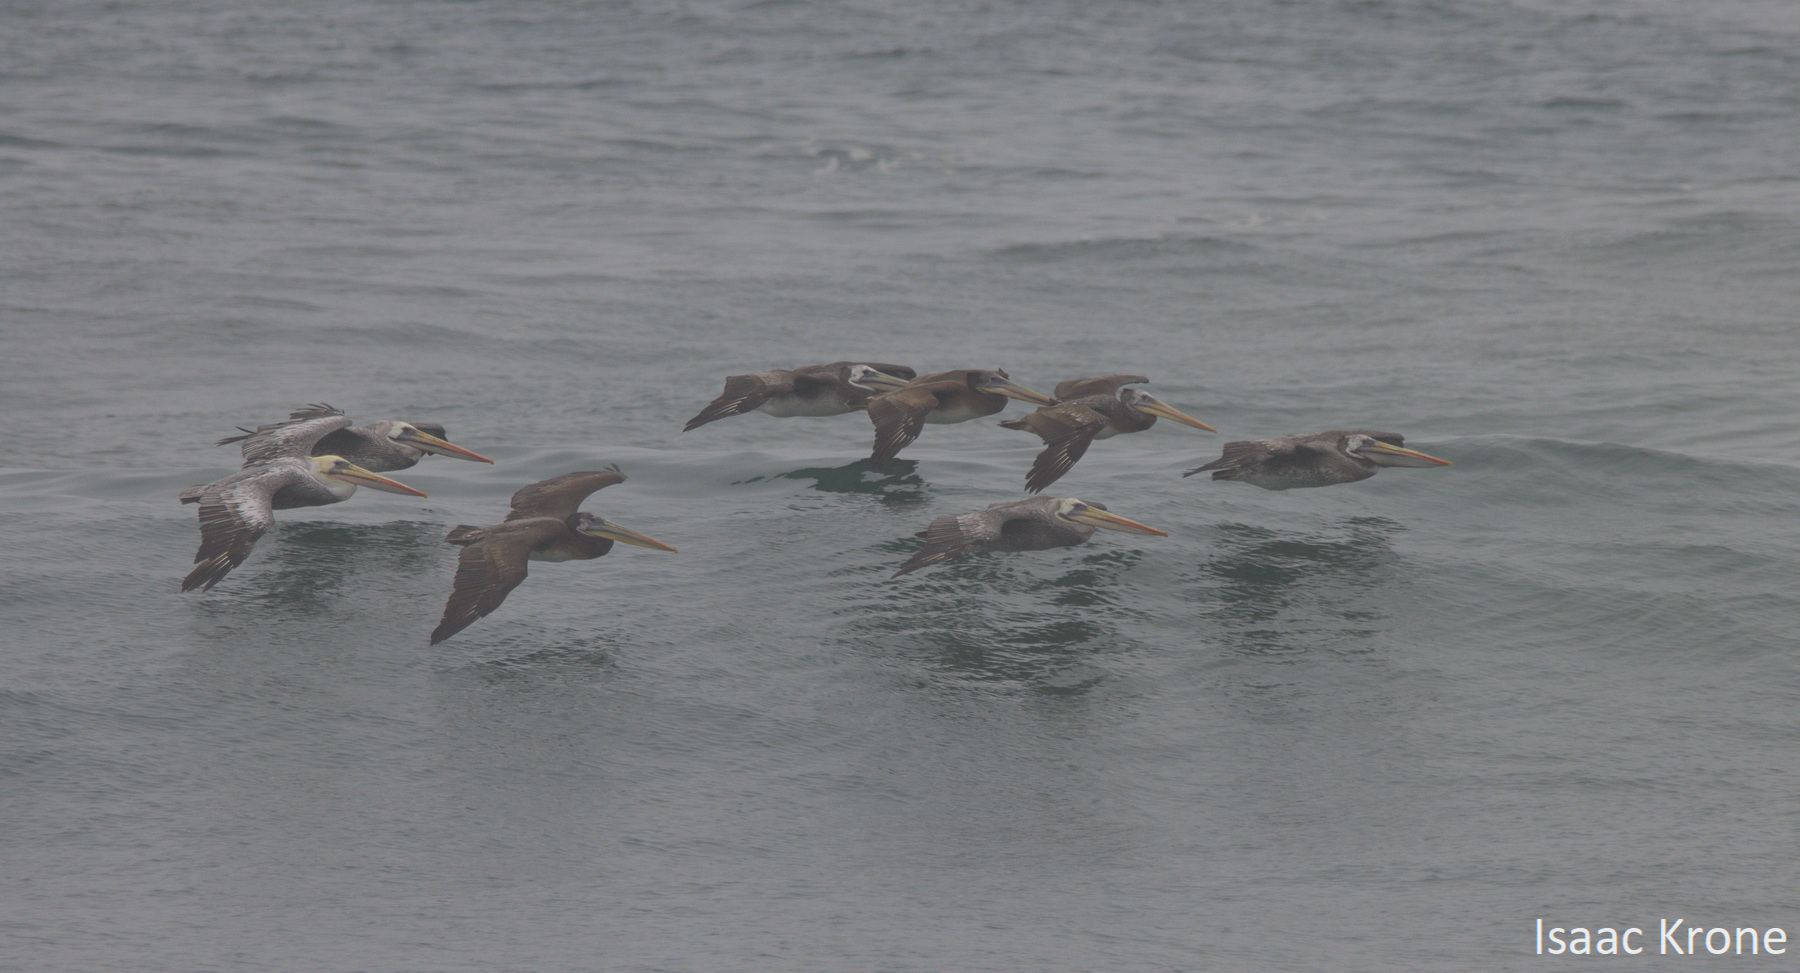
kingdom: Animalia
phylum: Chordata
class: Aves
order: Pelecaniformes
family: Pelecanidae
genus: Pelecanus
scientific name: Pelecanus thagus
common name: Peruvian pelican
